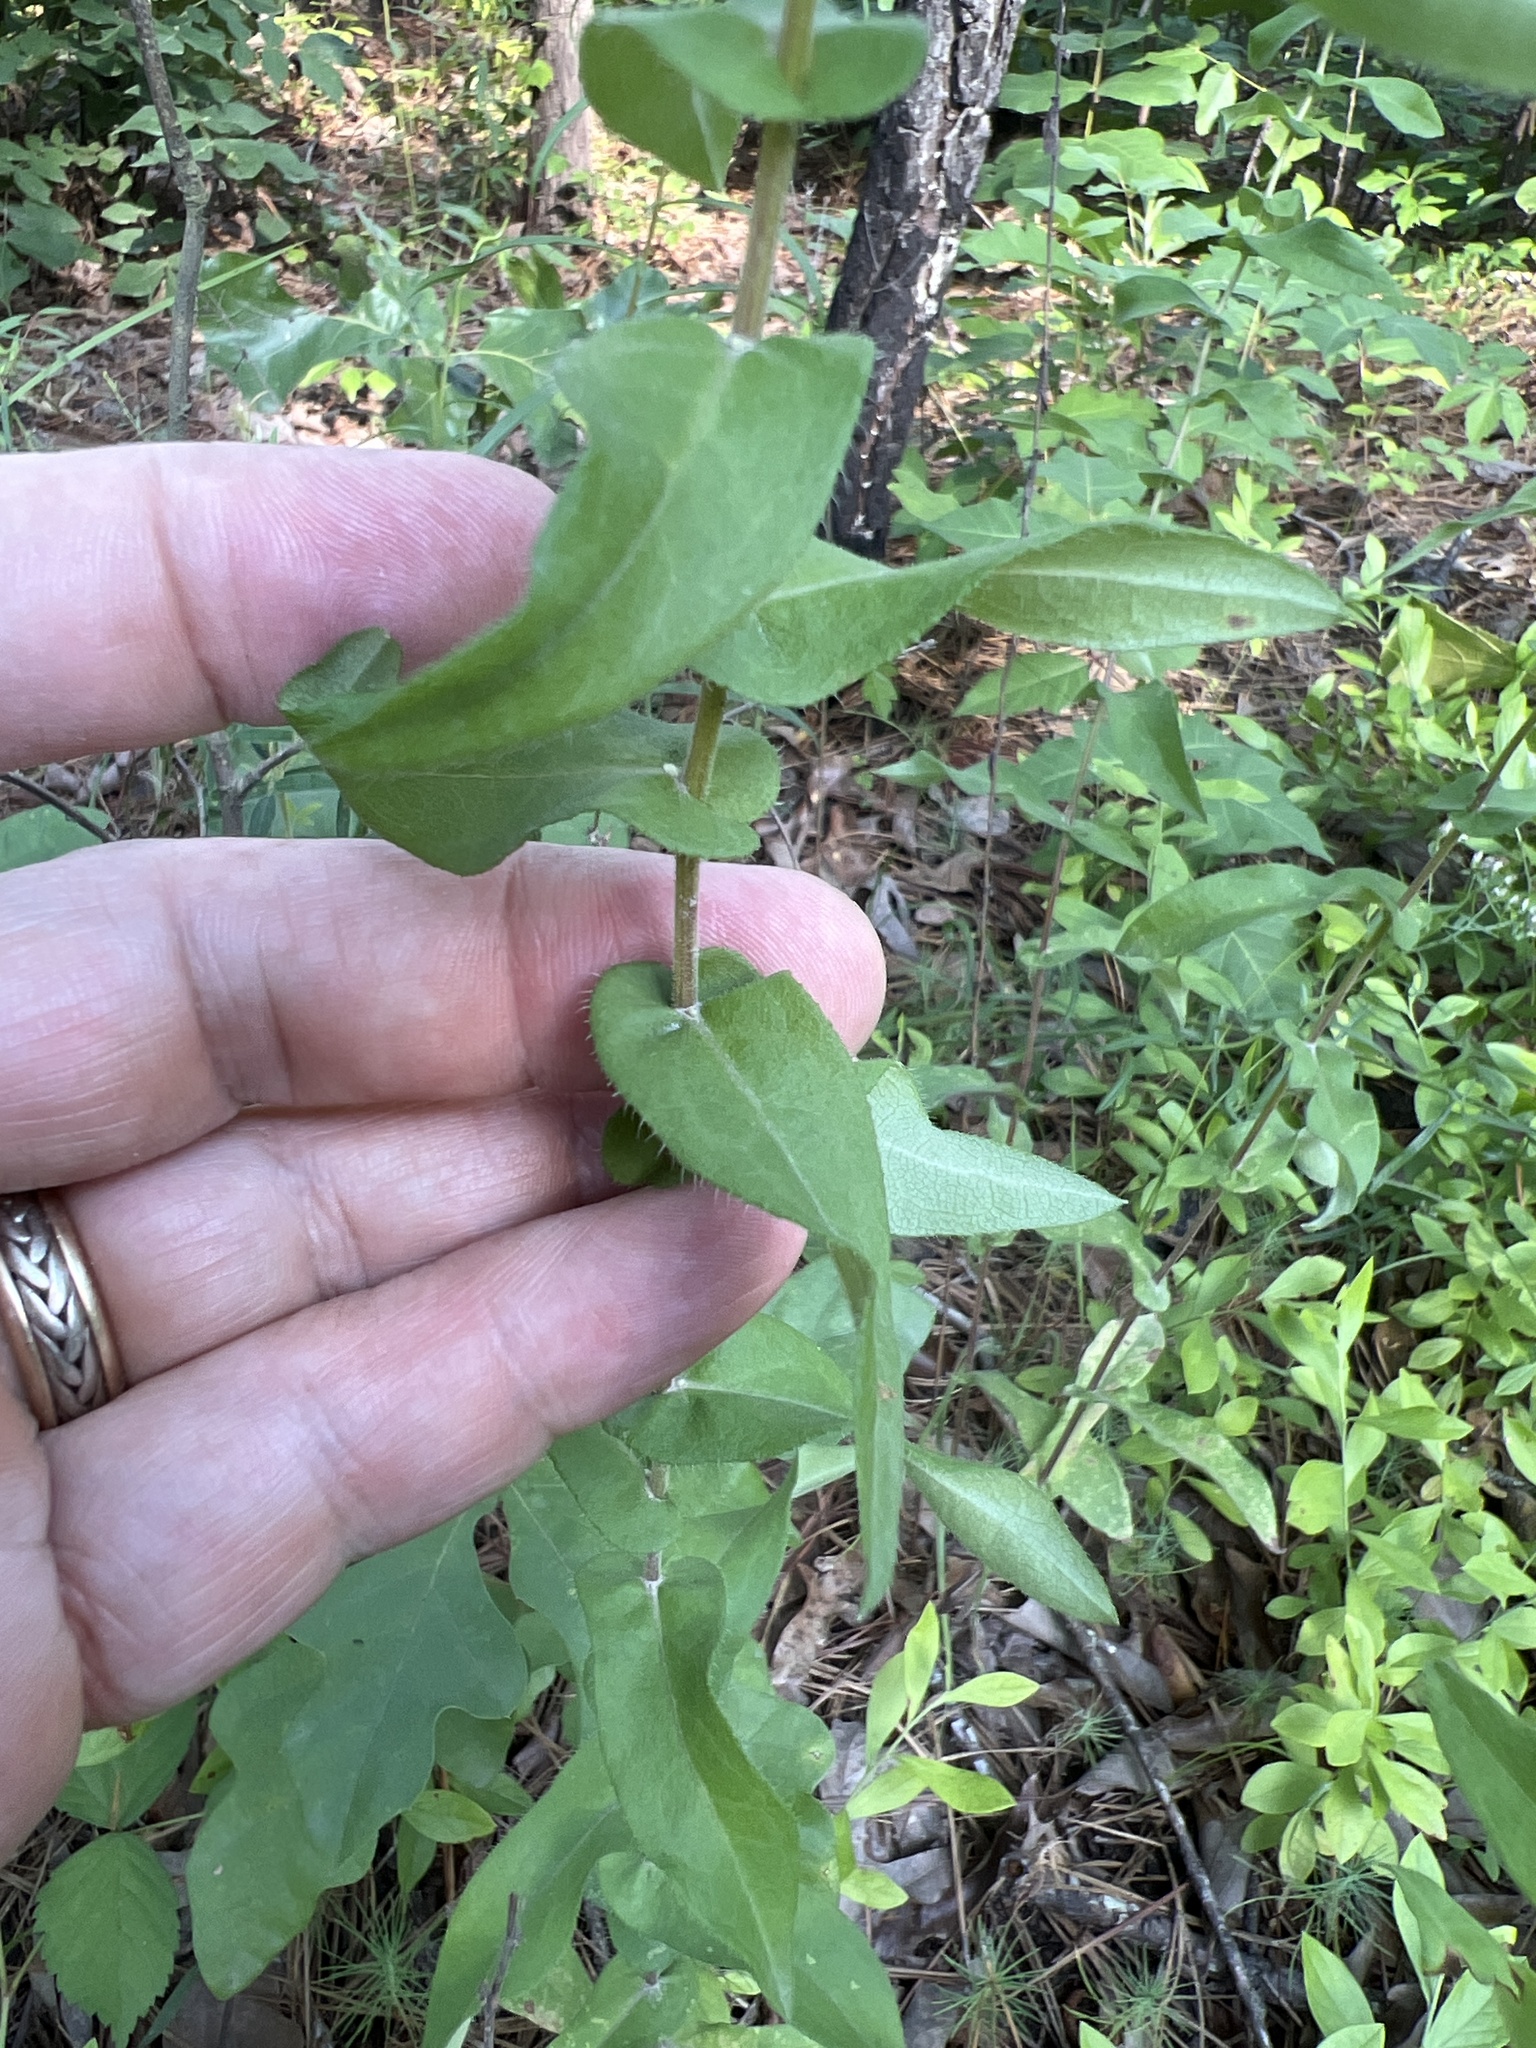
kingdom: Plantae
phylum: Tracheophyta
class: Magnoliopsida
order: Asterales
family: Asteraceae
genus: Symphyotrichum
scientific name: Symphyotrichum patens
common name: Late purple aster
